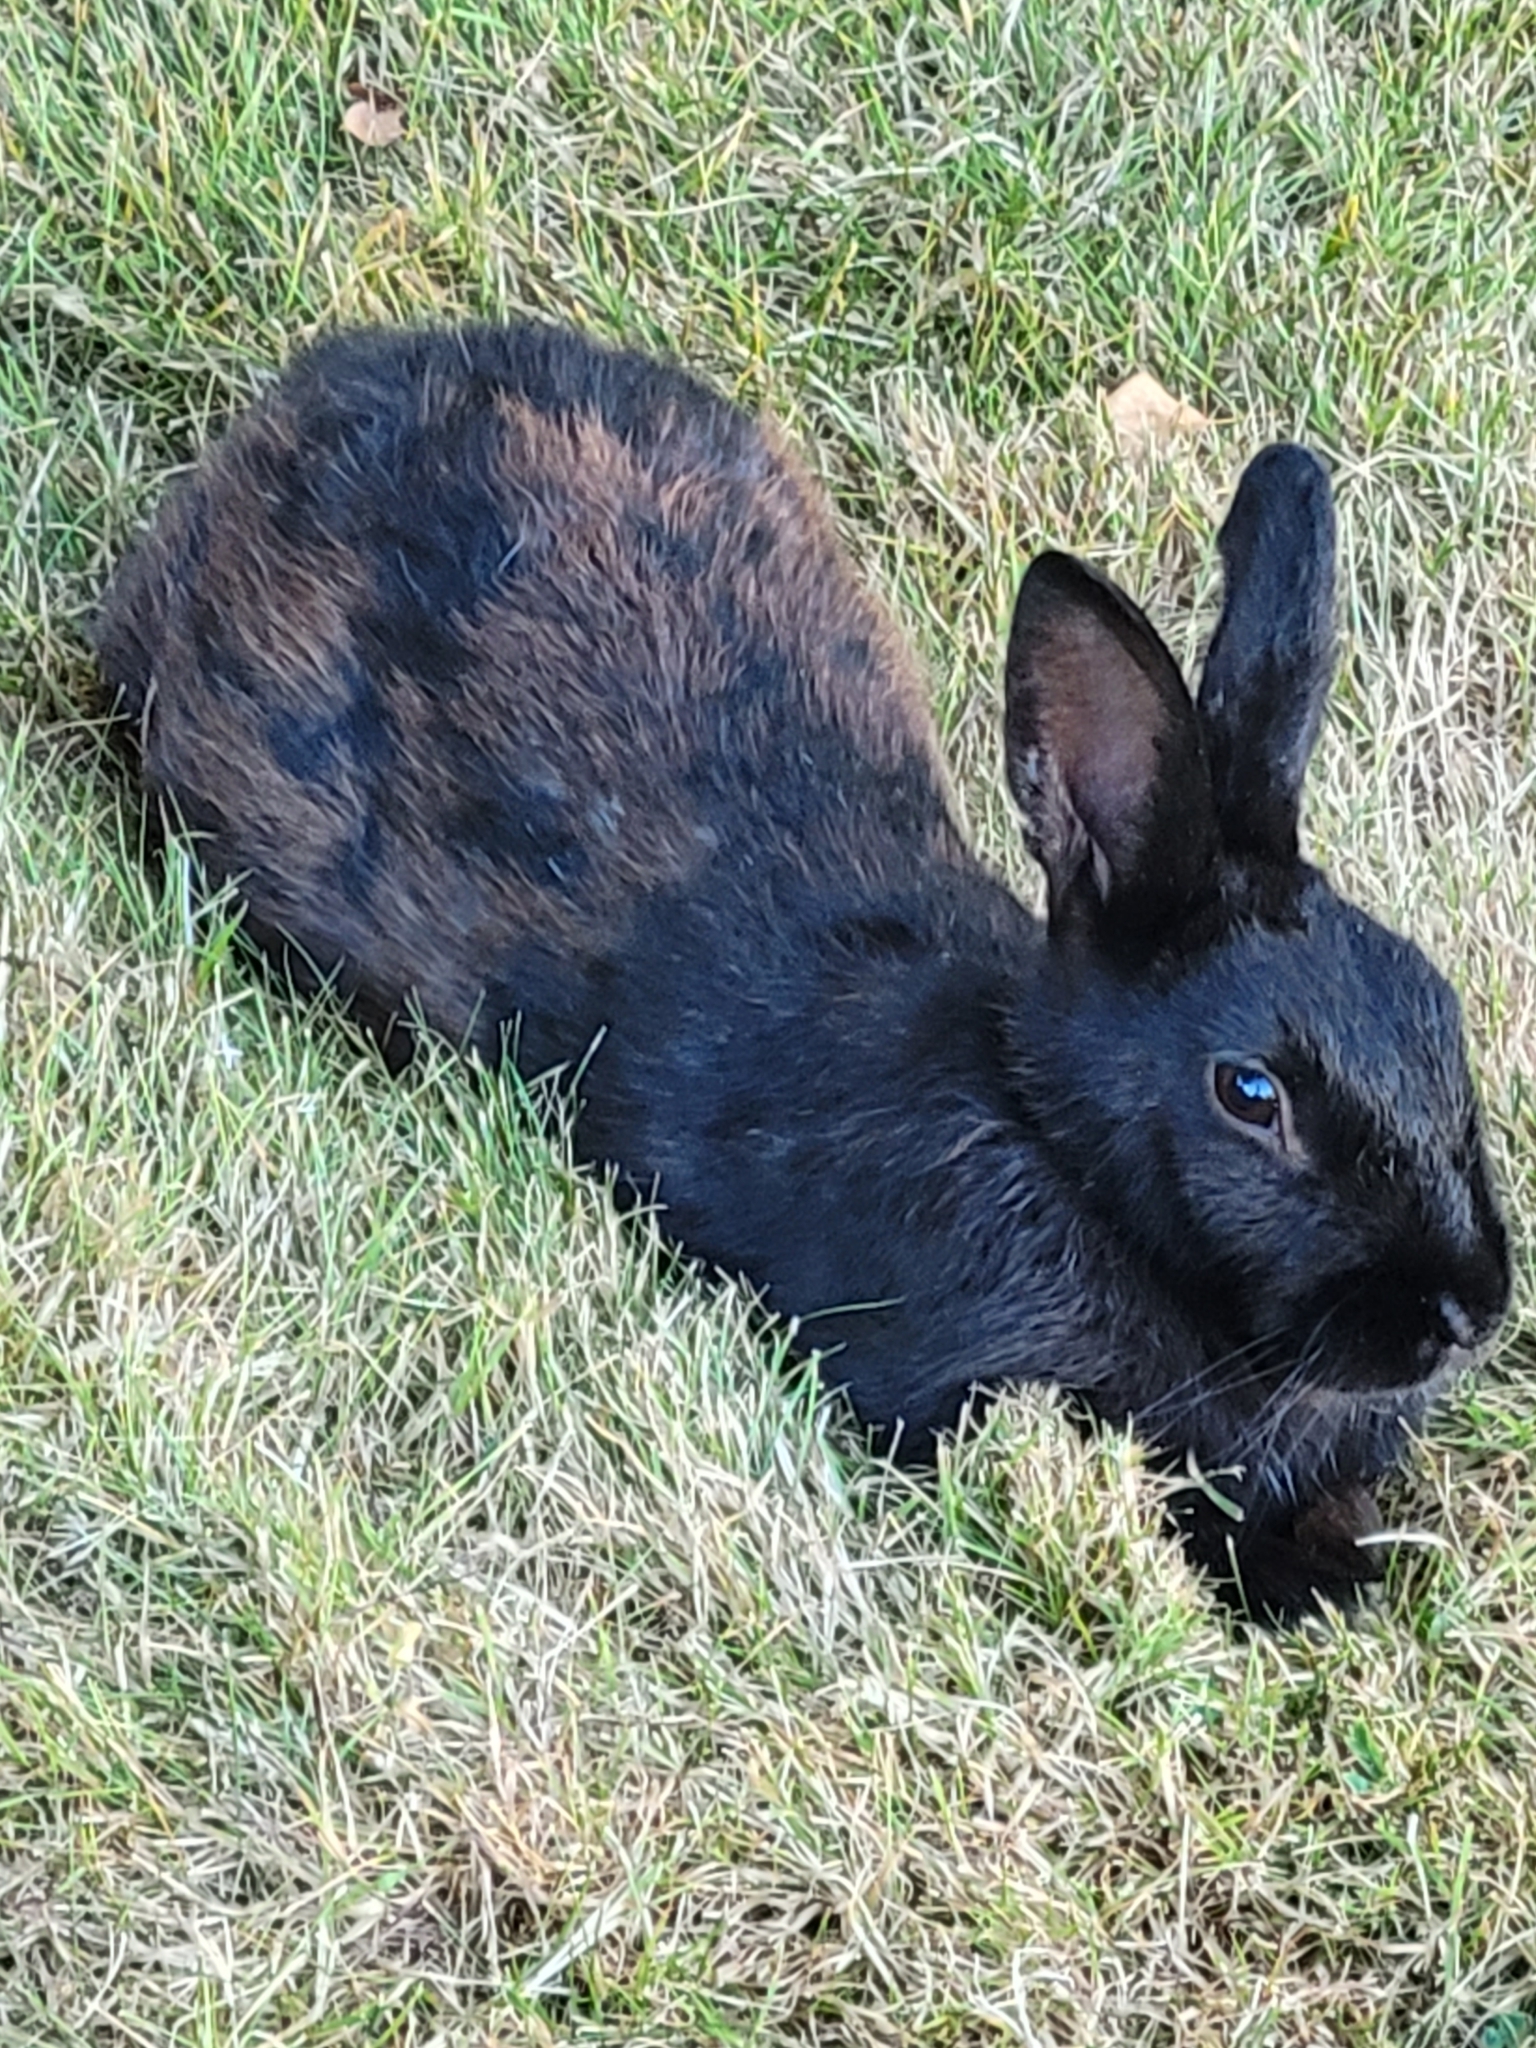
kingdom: Animalia
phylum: Chordata
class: Mammalia
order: Lagomorpha
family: Leporidae
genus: Oryctolagus
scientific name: Oryctolagus cuniculus
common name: European rabbit
